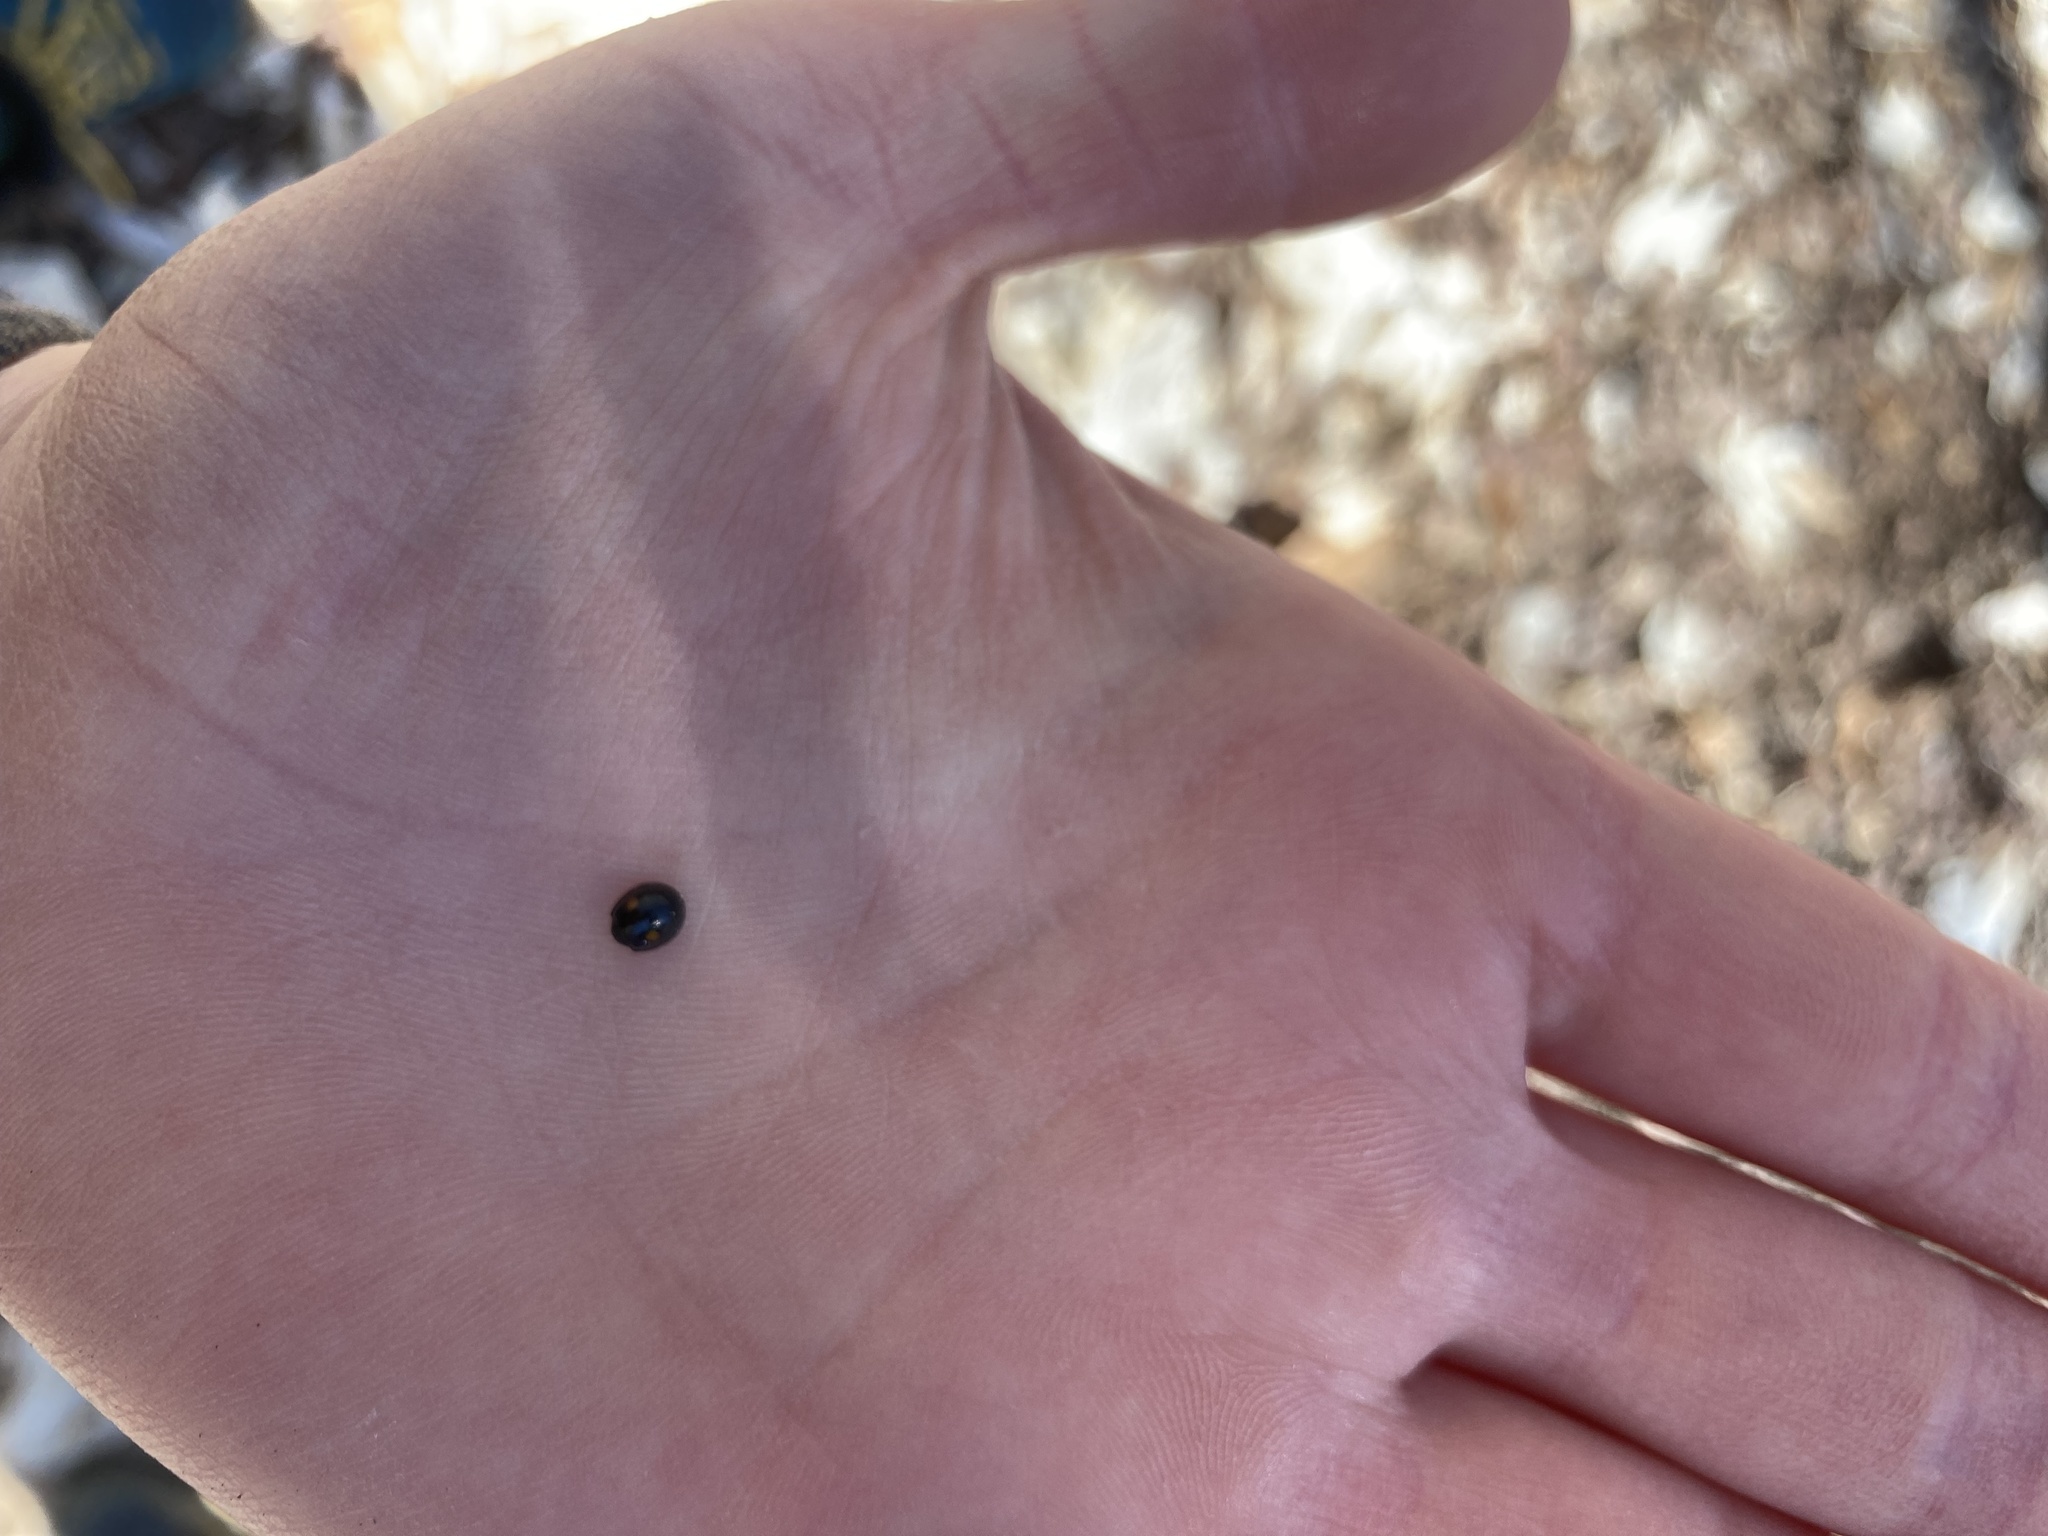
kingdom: Animalia
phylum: Arthropoda
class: Insecta
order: Coleoptera
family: Coccinellidae
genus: Chilocorus
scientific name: Chilocorus stigma
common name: Twicestabbed lady beetle
